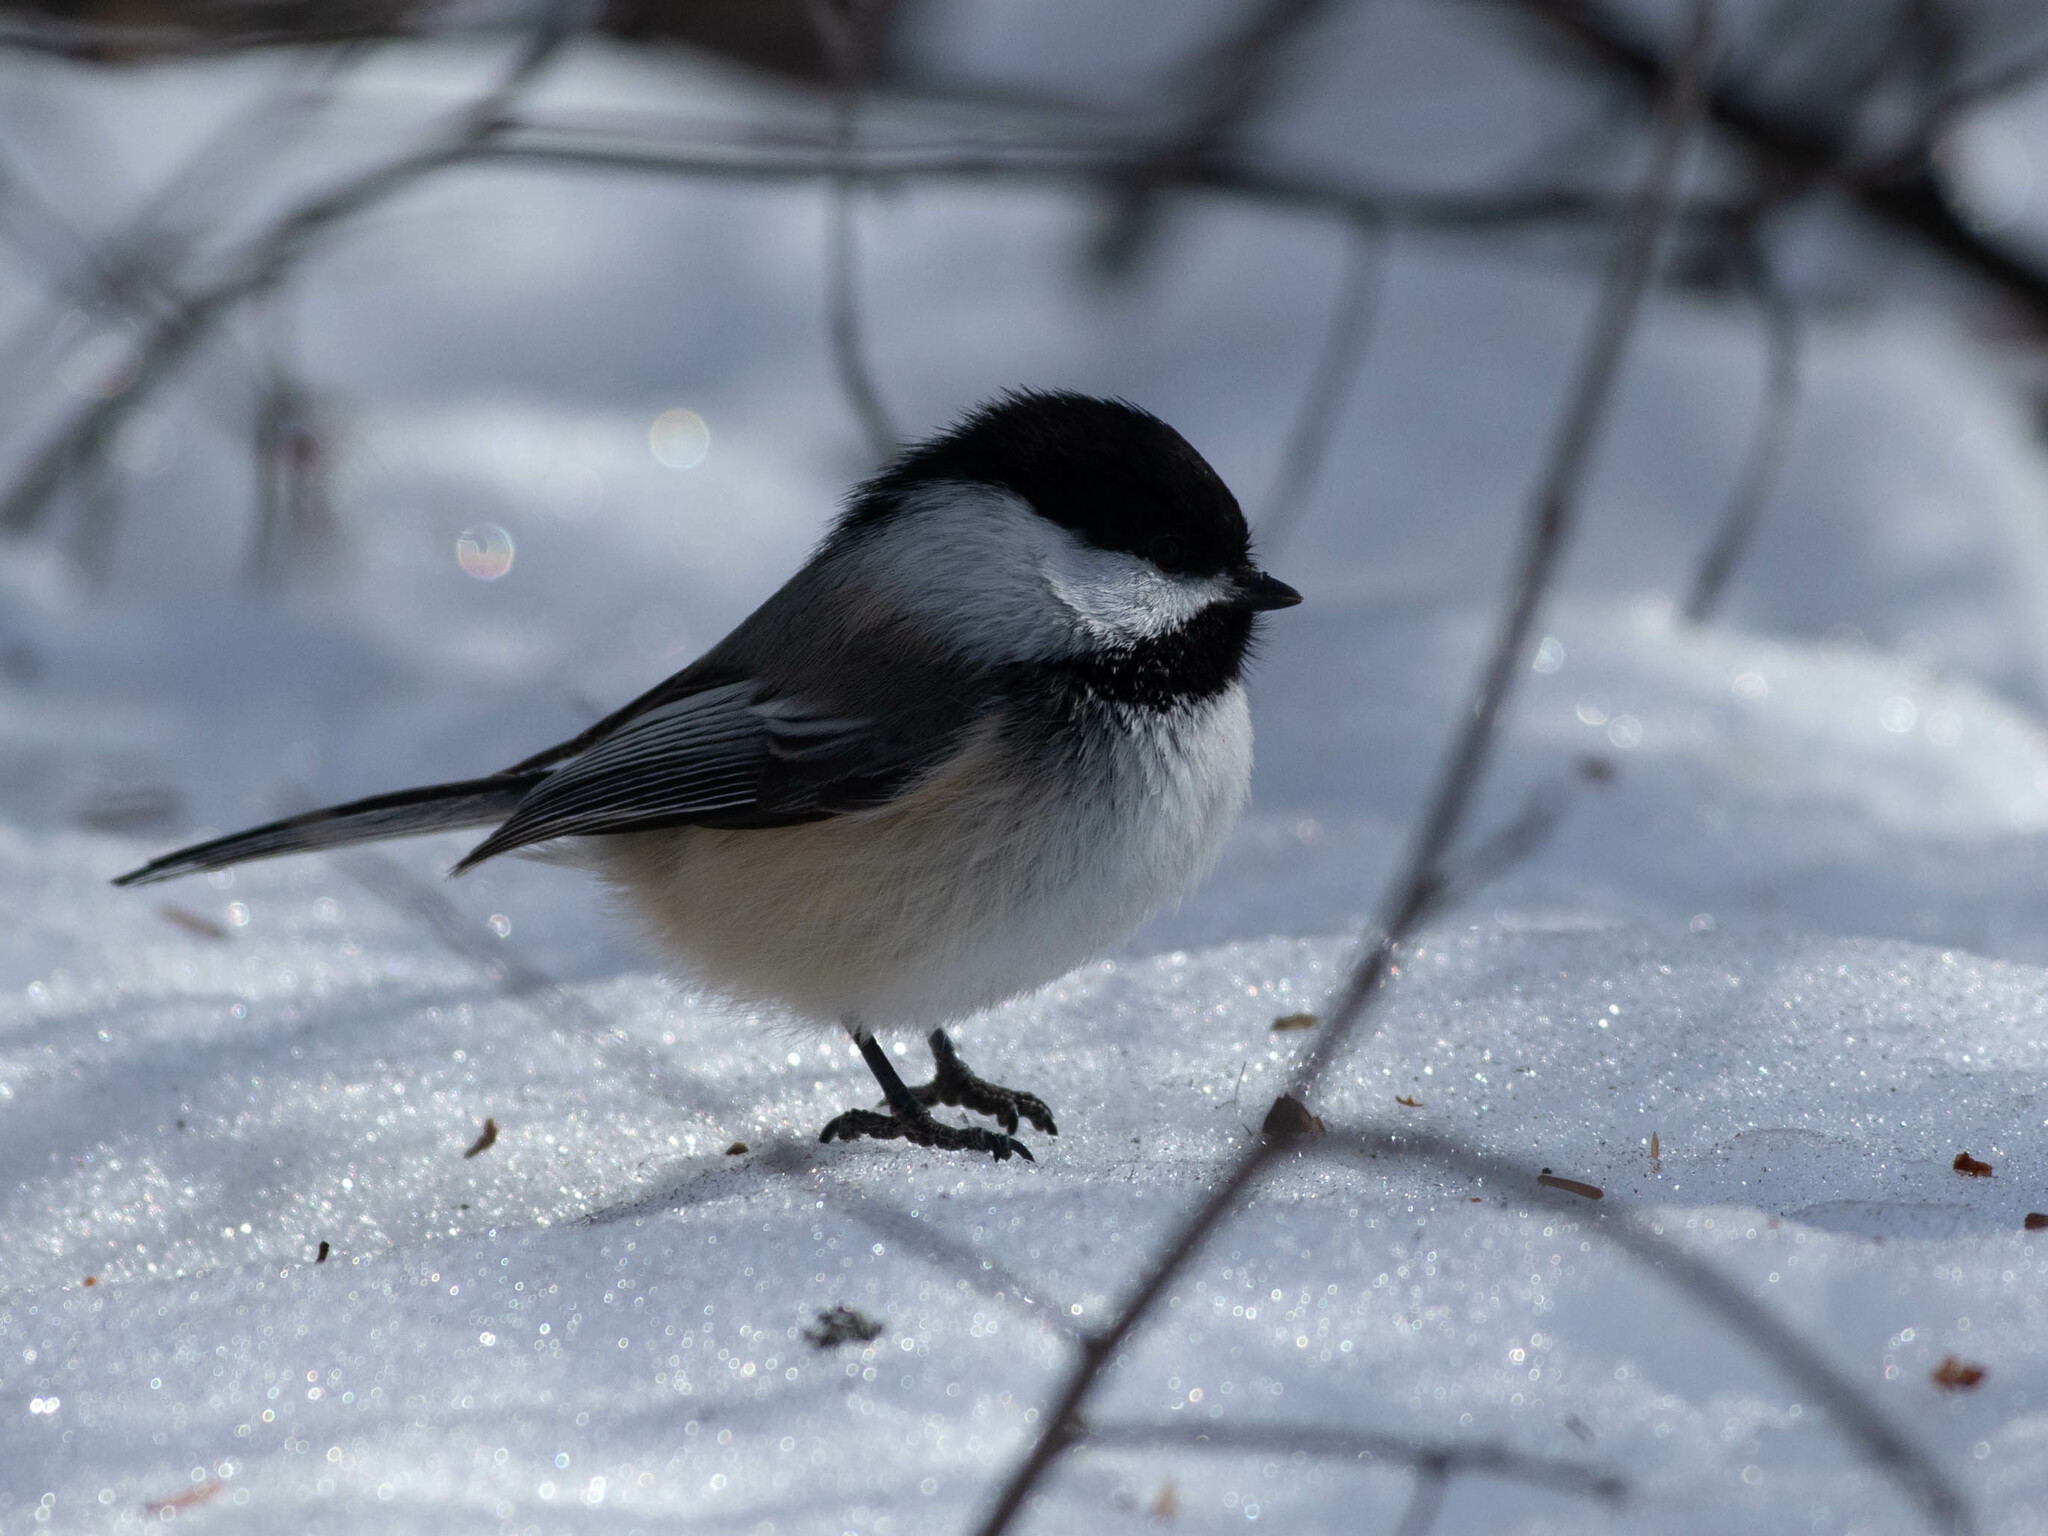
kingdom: Animalia
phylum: Chordata
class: Aves
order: Passeriformes
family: Paridae
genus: Poecile
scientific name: Poecile atricapillus
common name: Black-capped chickadee
